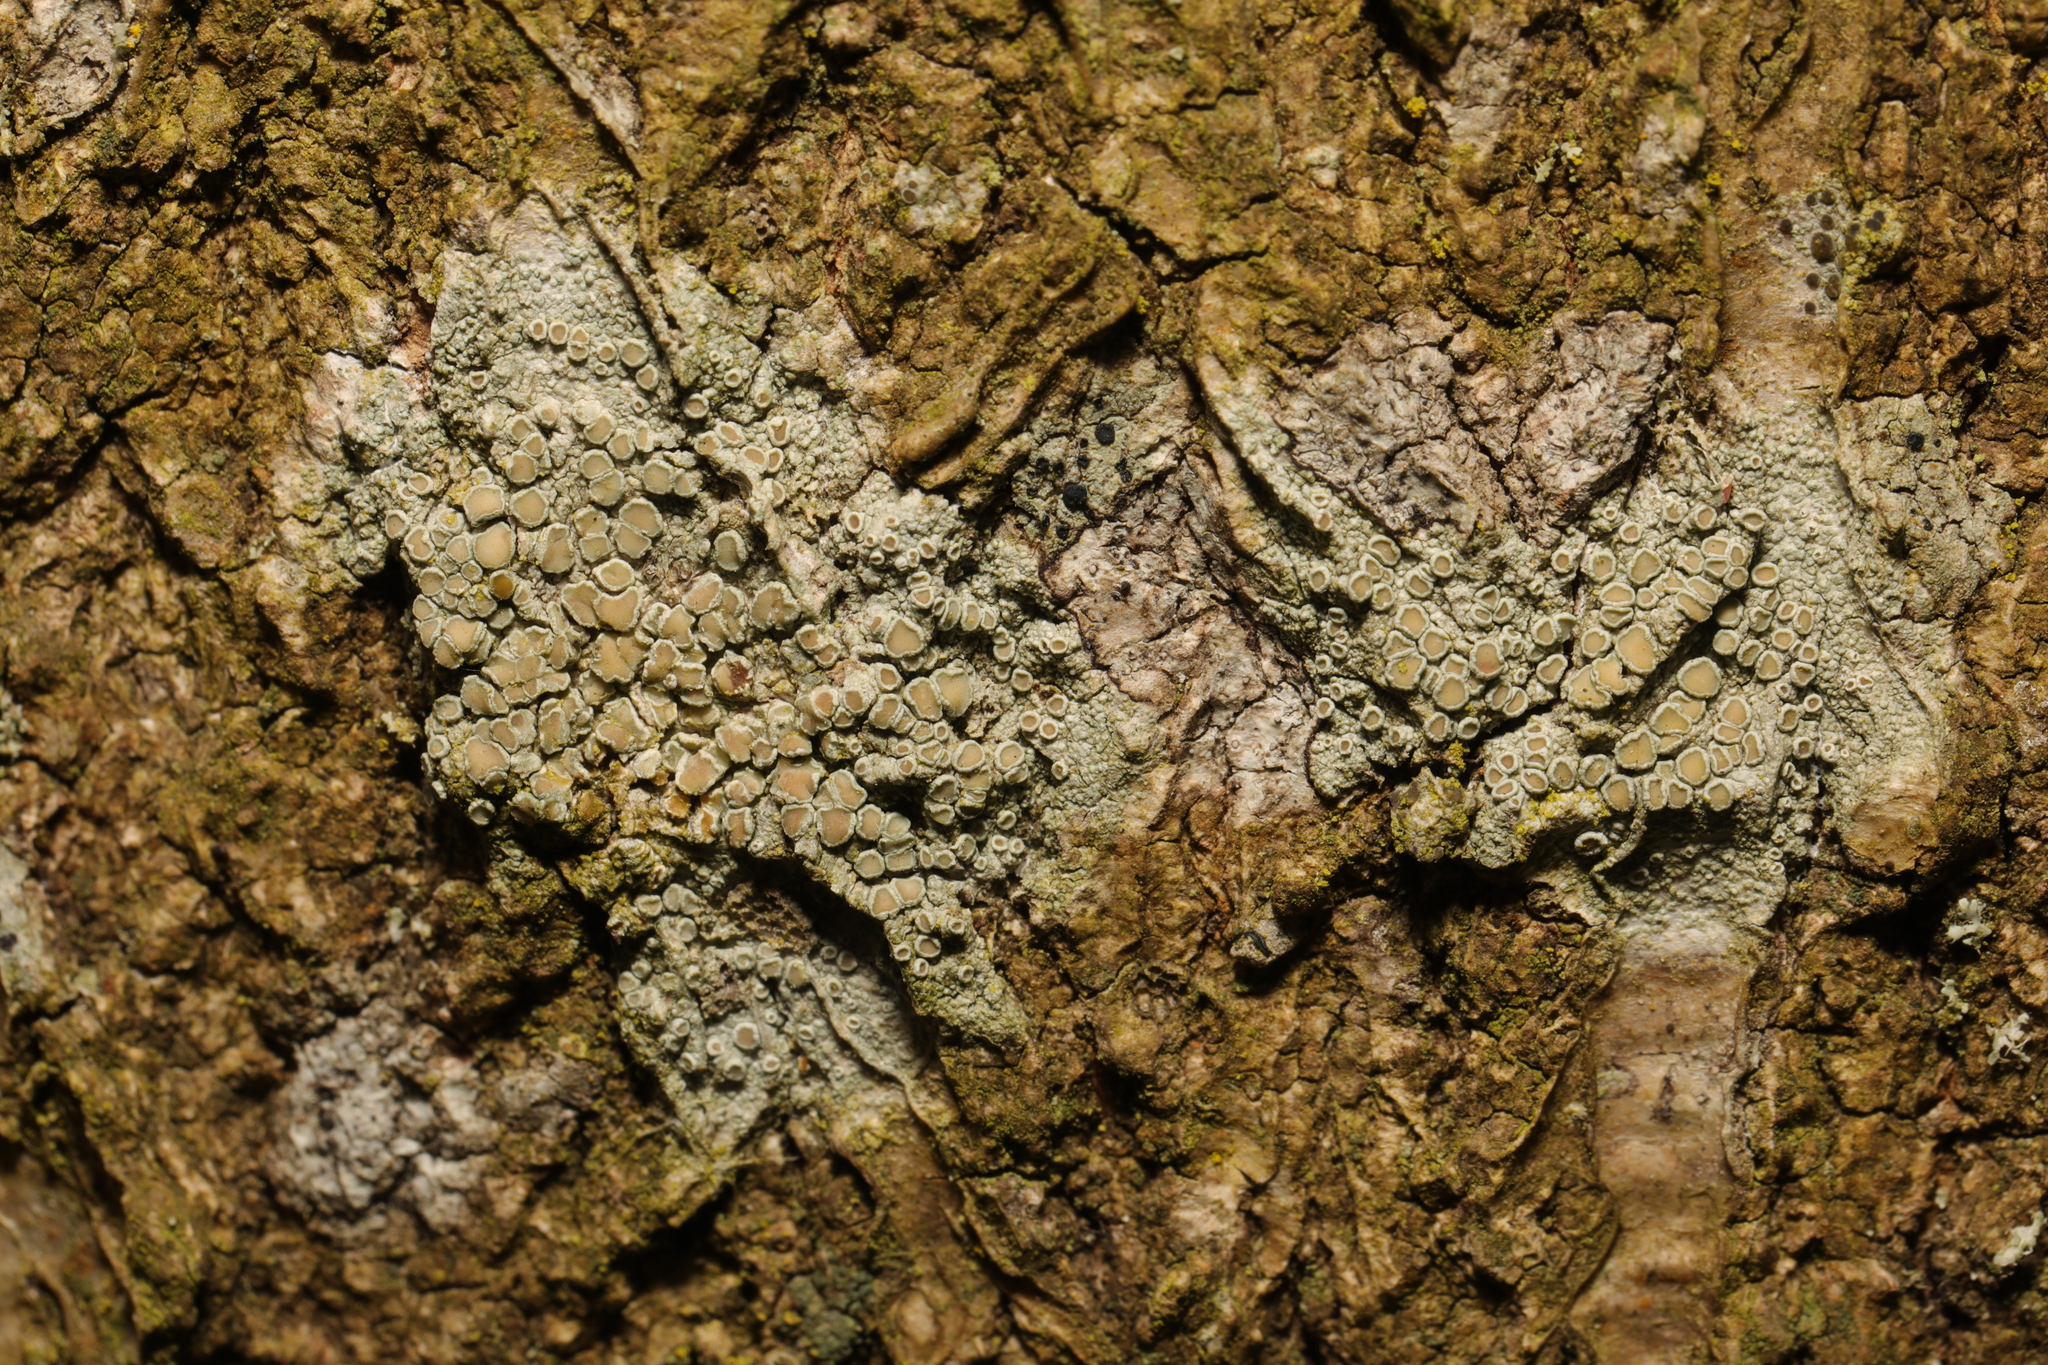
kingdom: Fungi
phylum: Ascomycota
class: Lecanoromycetes
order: Lecanorales
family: Lecanoraceae
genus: Lecanora
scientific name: Lecanora
